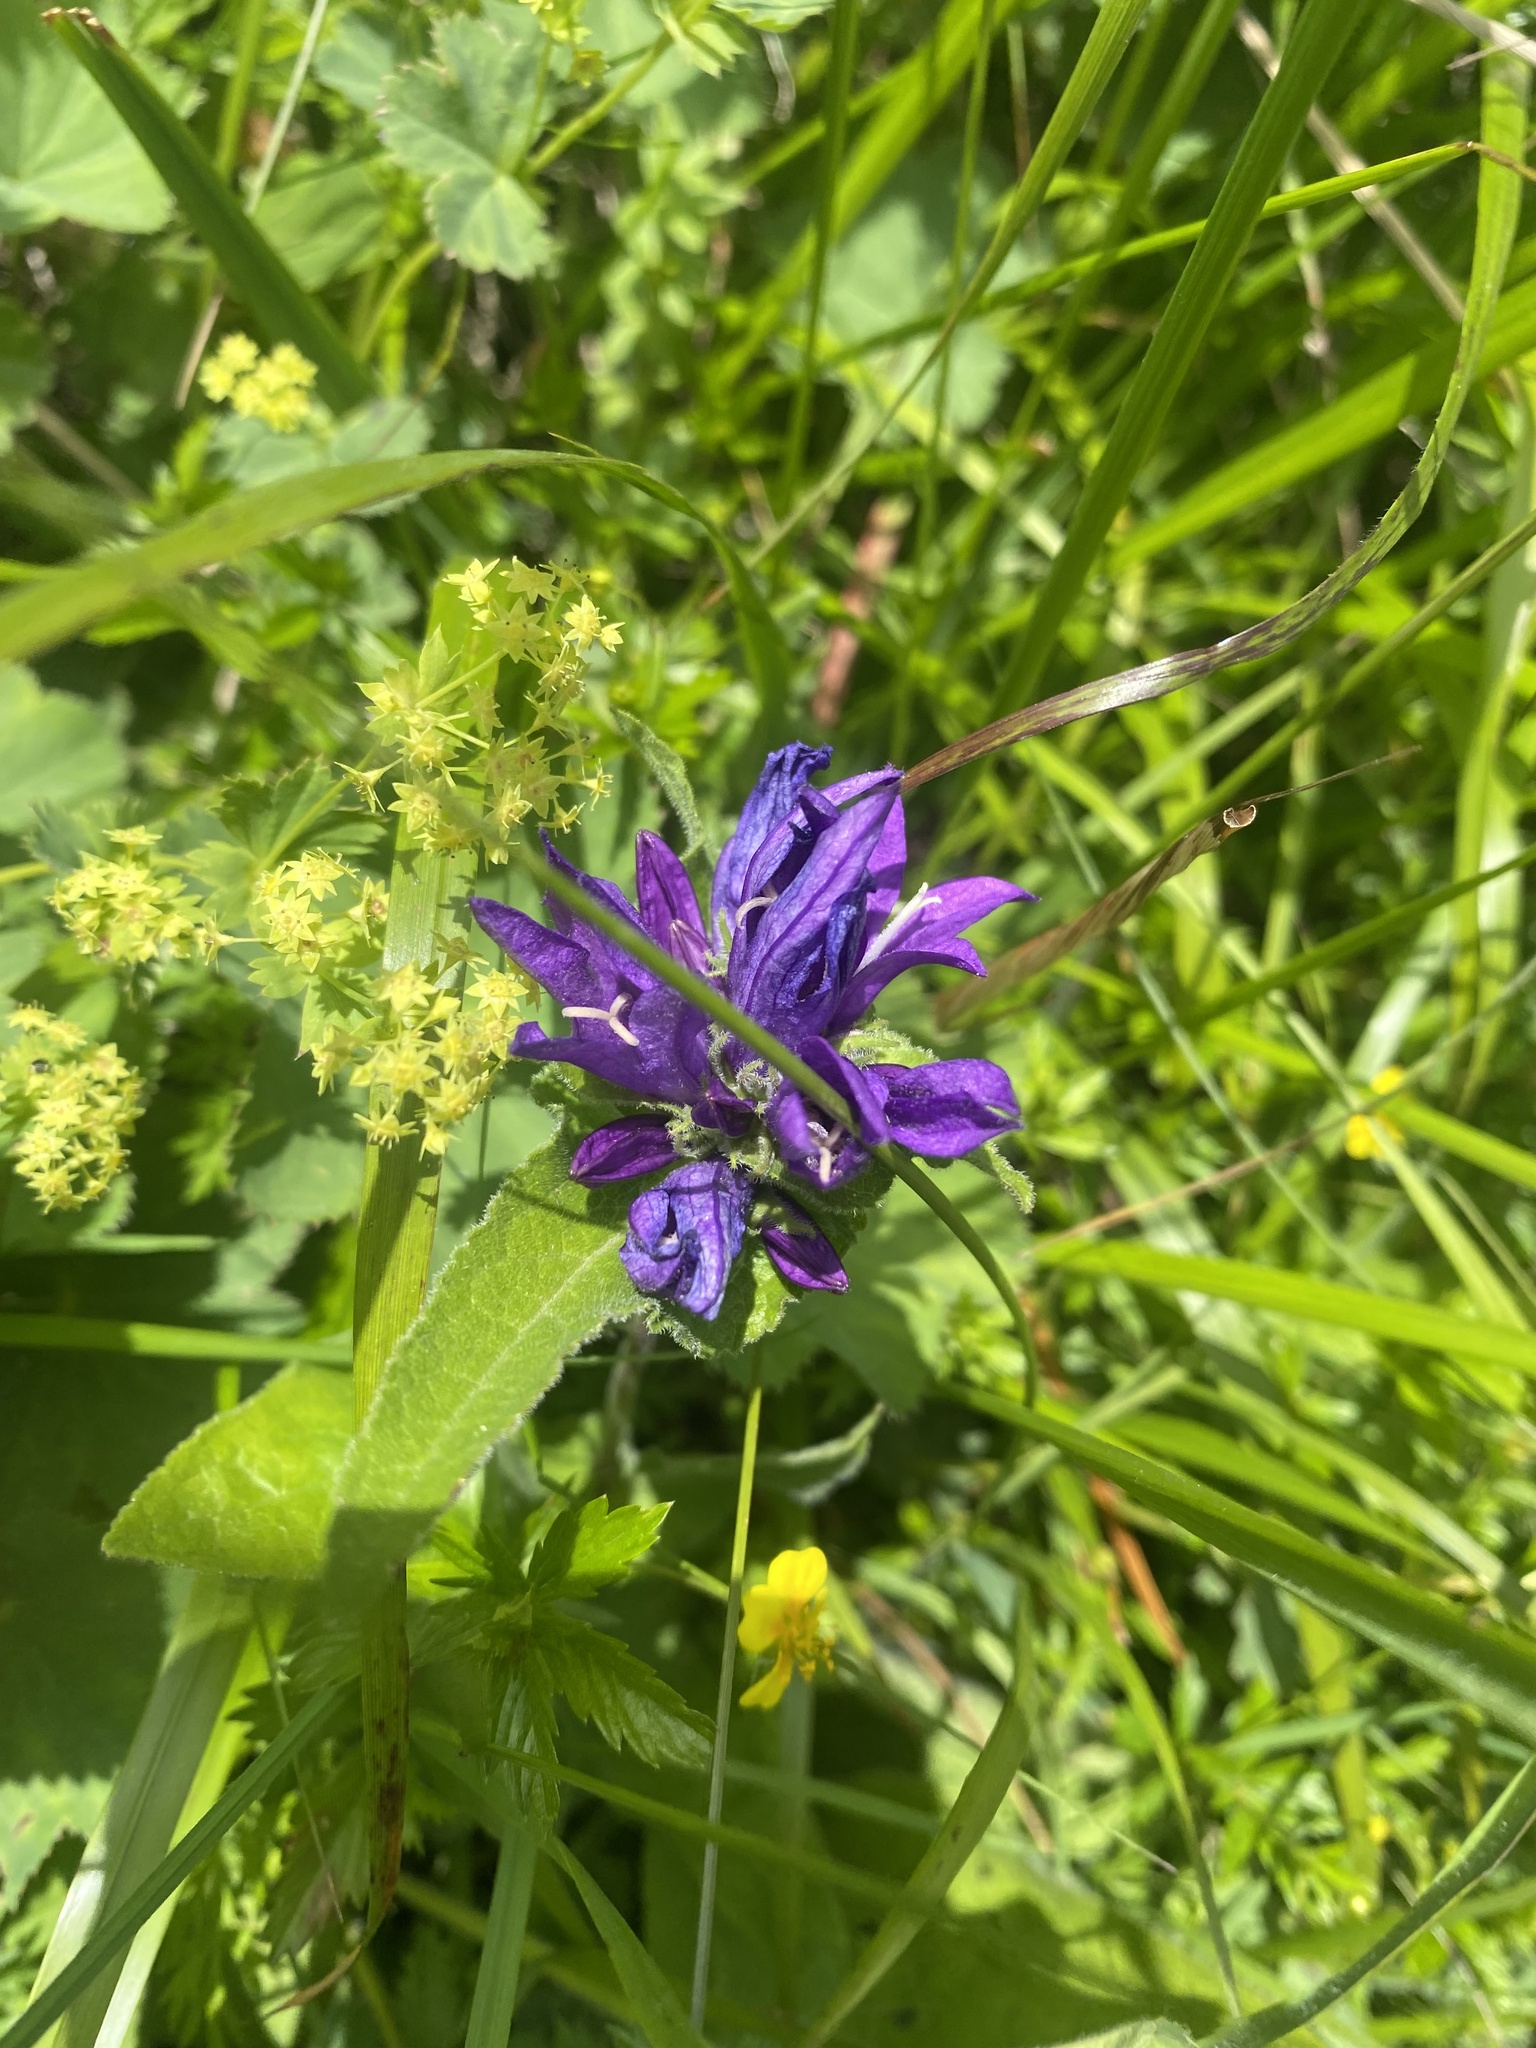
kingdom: Plantae
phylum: Tracheophyta
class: Magnoliopsida
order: Asterales
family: Campanulaceae
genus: Campanula
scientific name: Campanula glomerata
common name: Clustered bellflower
